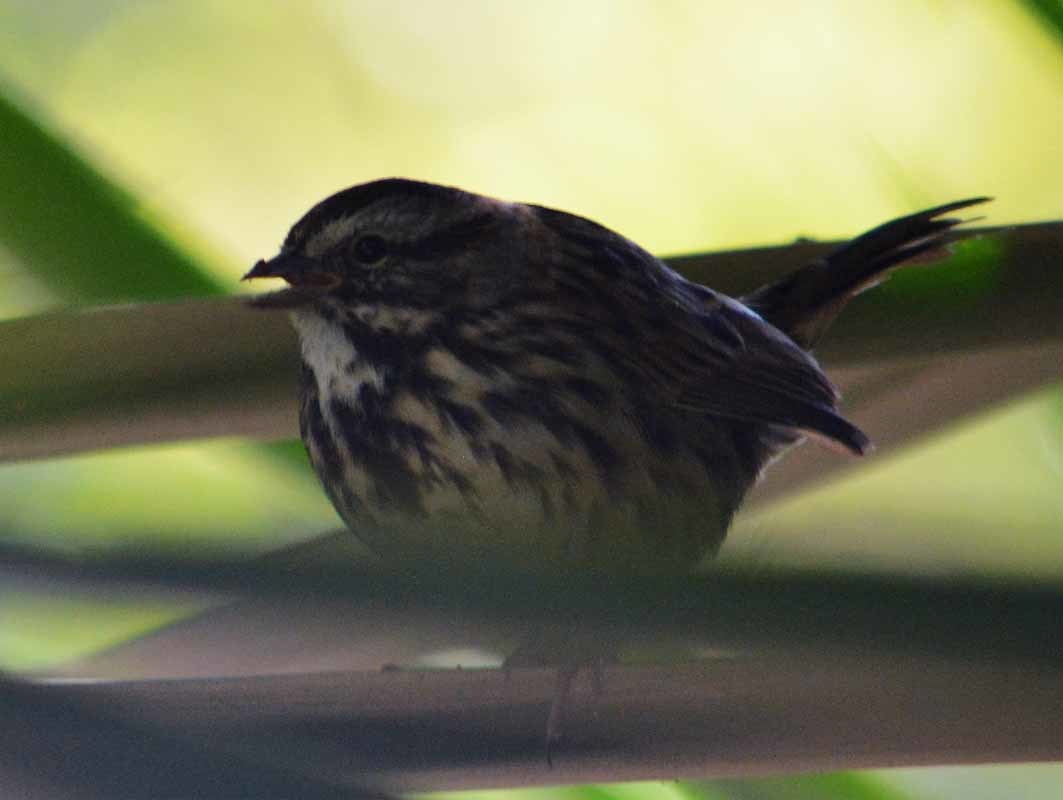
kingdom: Animalia
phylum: Chordata
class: Aves
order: Passeriformes
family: Passerellidae
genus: Melospiza
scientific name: Melospiza melodia
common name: Song sparrow
